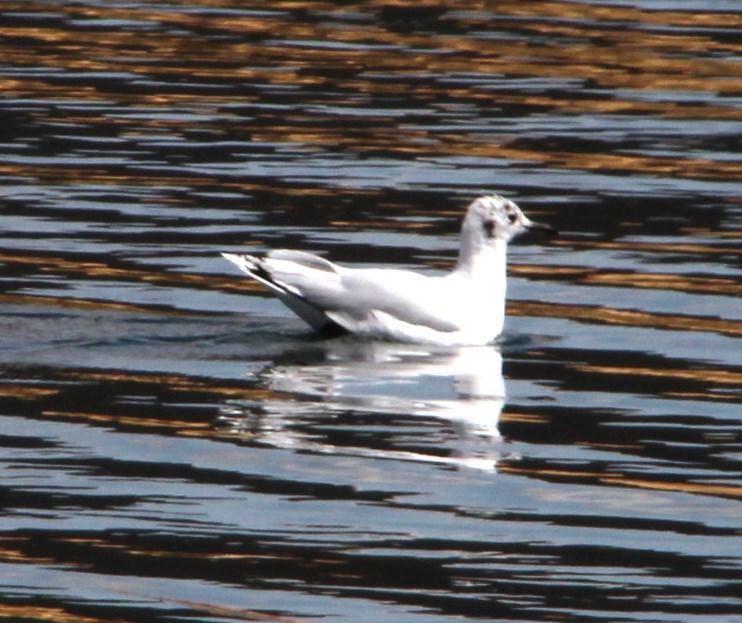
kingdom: Animalia
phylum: Chordata
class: Aves
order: Charadriiformes
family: Laridae
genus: Chroicocephalus
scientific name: Chroicocephalus serranus
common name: Andean gull
